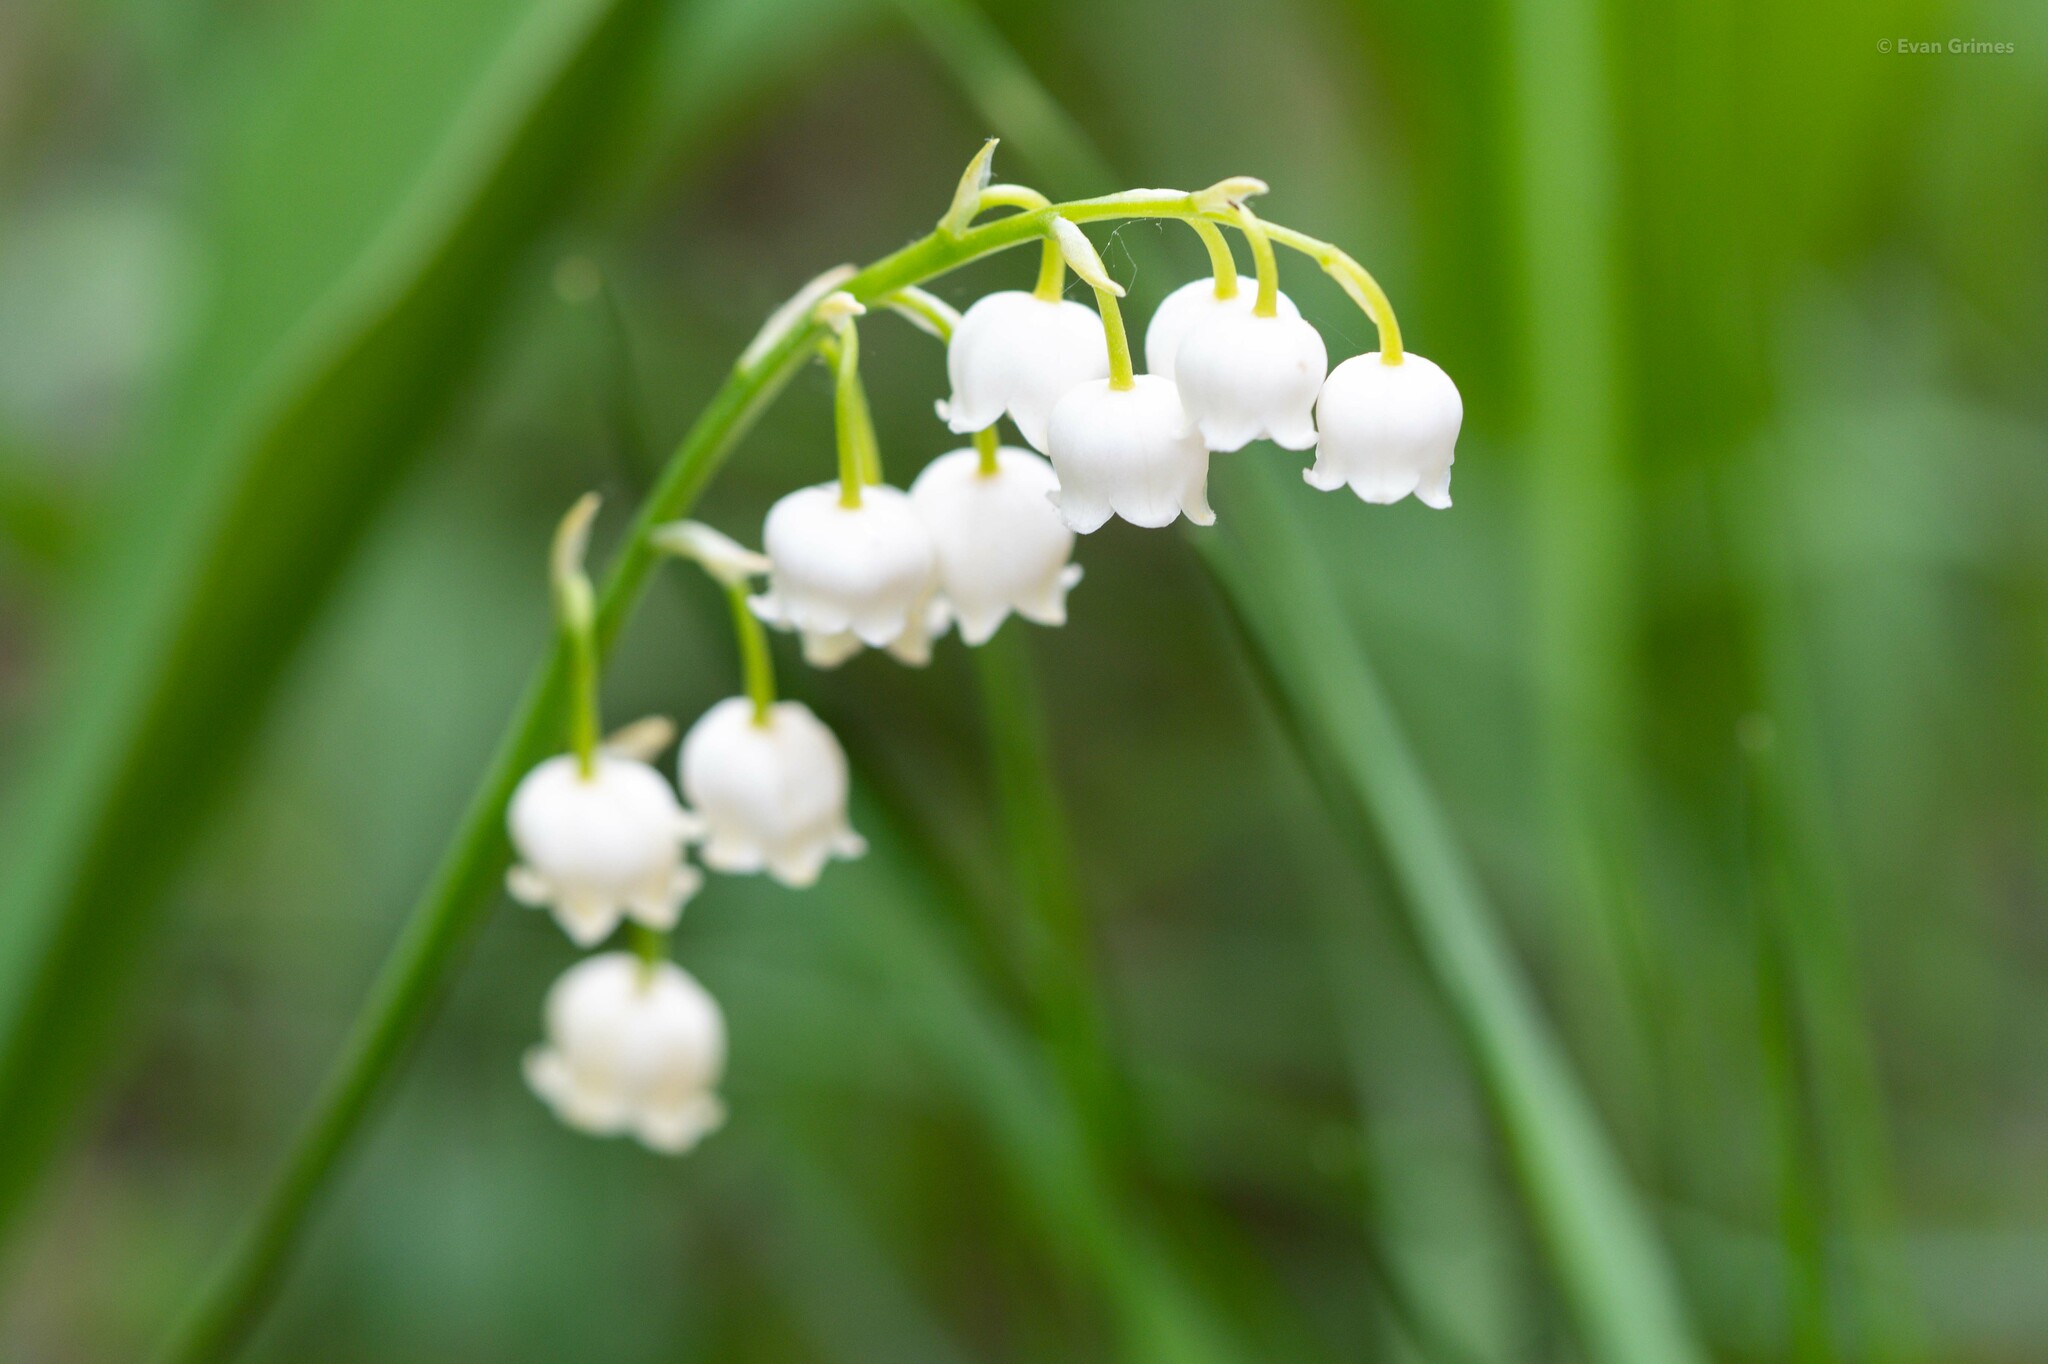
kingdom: Plantae
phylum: Tracheophyta
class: Liliopsida
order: Asparagales
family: Asparagaceae
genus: Convallaria
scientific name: Convallaria majalis
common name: Lily-of-the-valley
